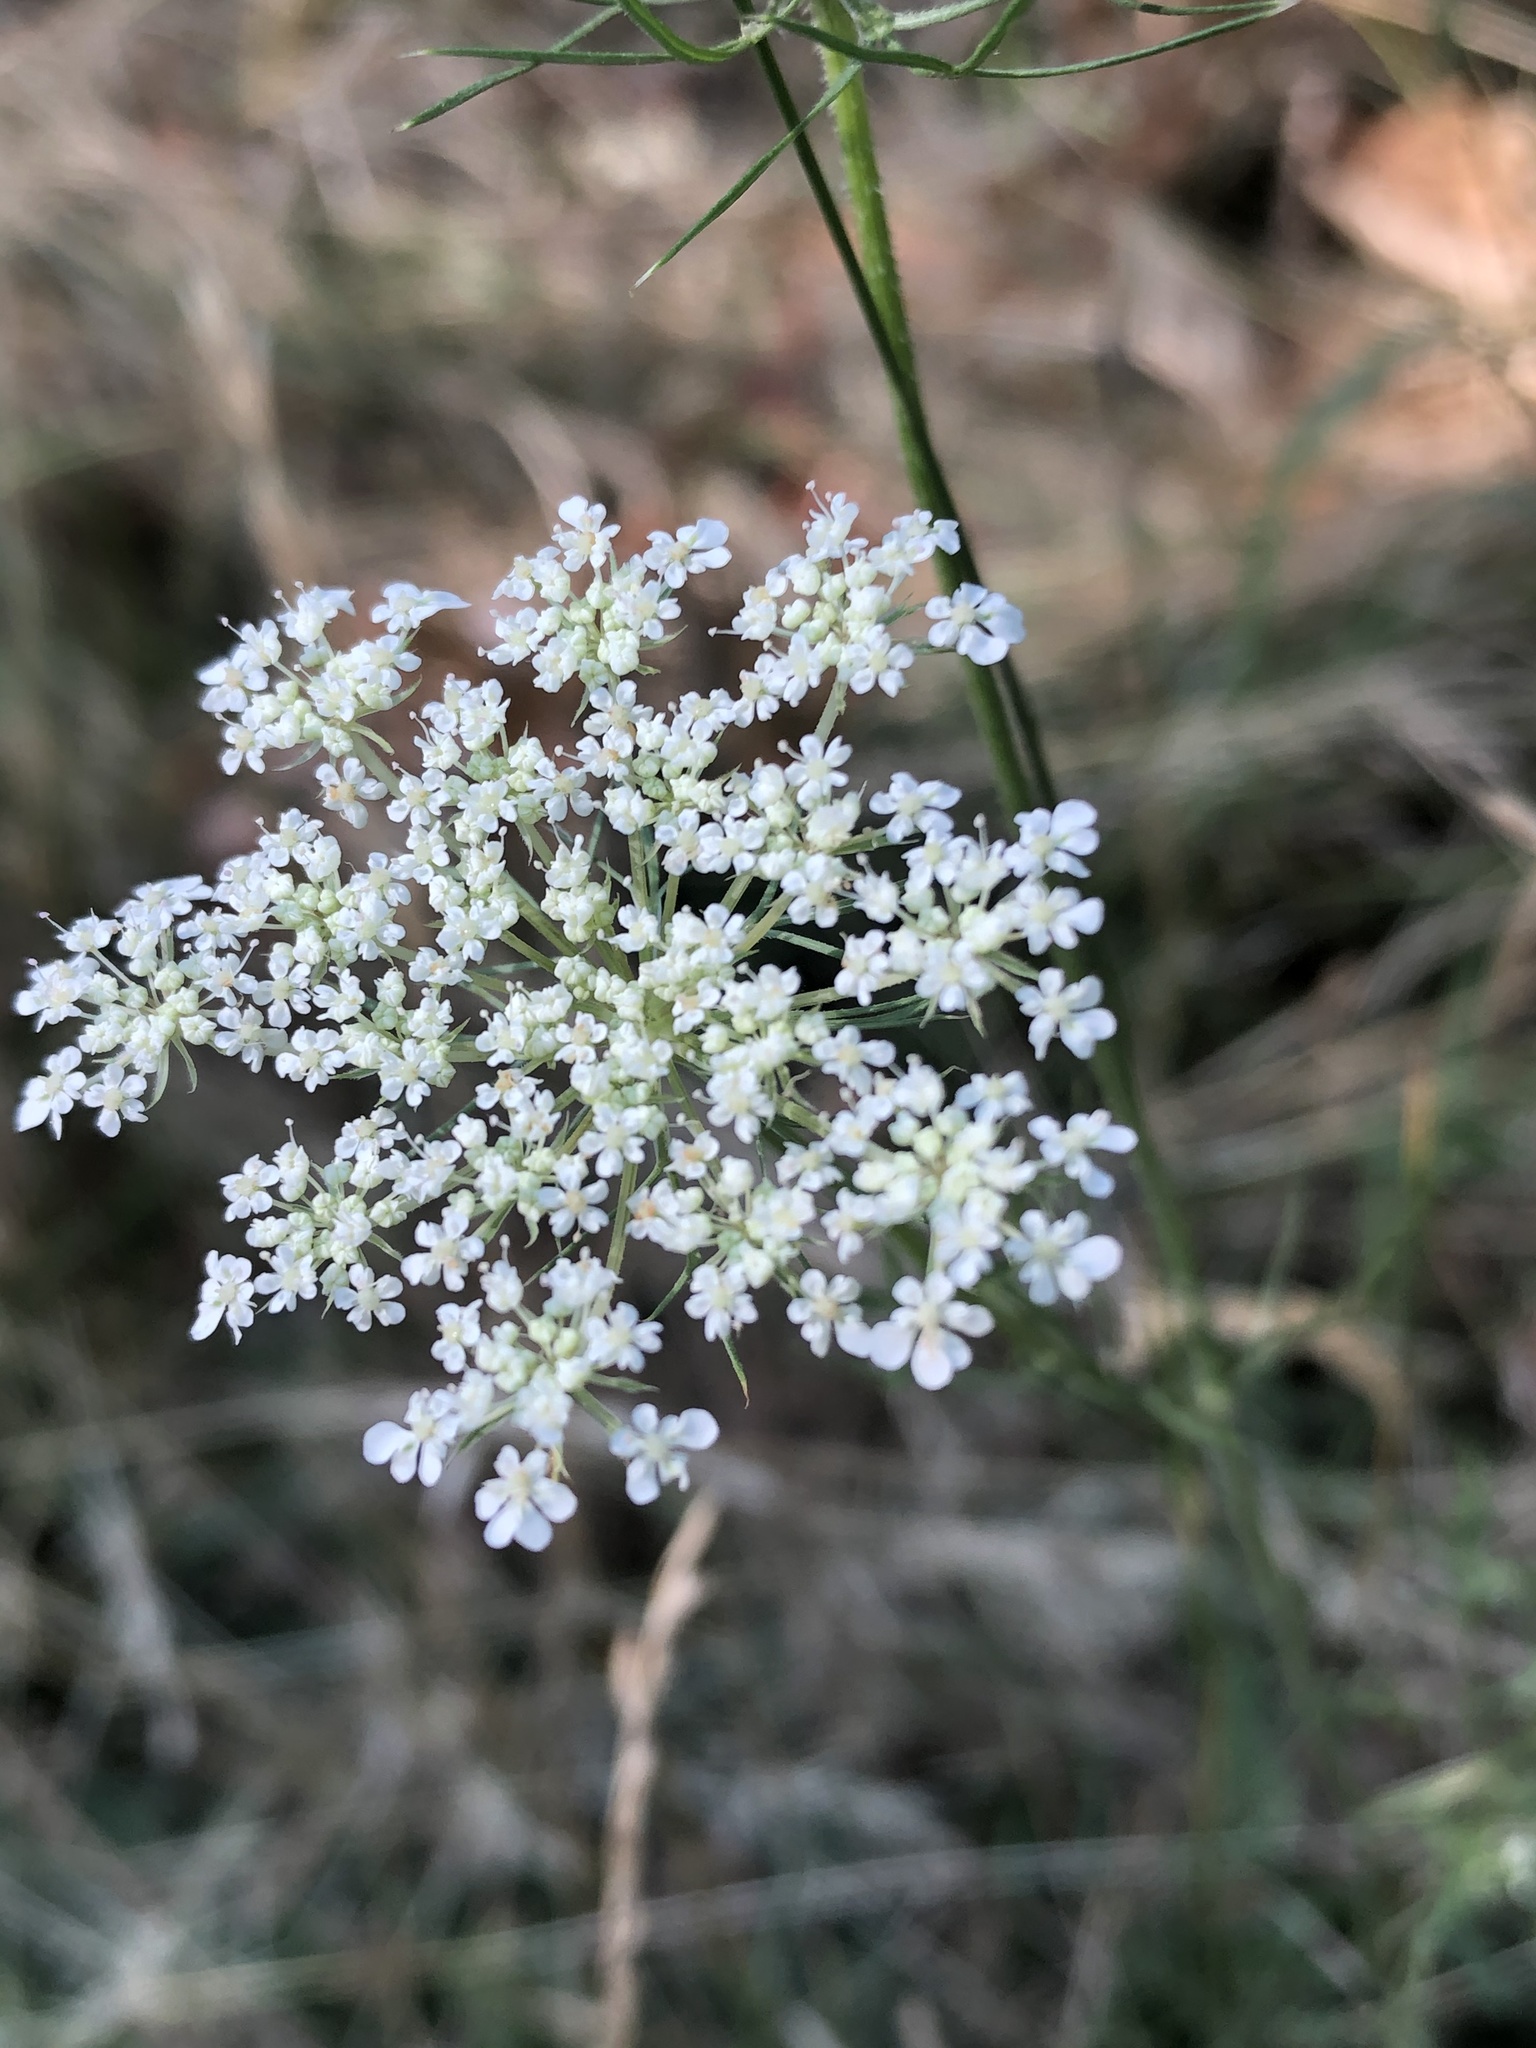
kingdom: Plantae
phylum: Tracheophyta
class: Magnoliopsida
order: Apiales
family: Apiaceae
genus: Daucus
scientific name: Daucus carota
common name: Wild carrot
